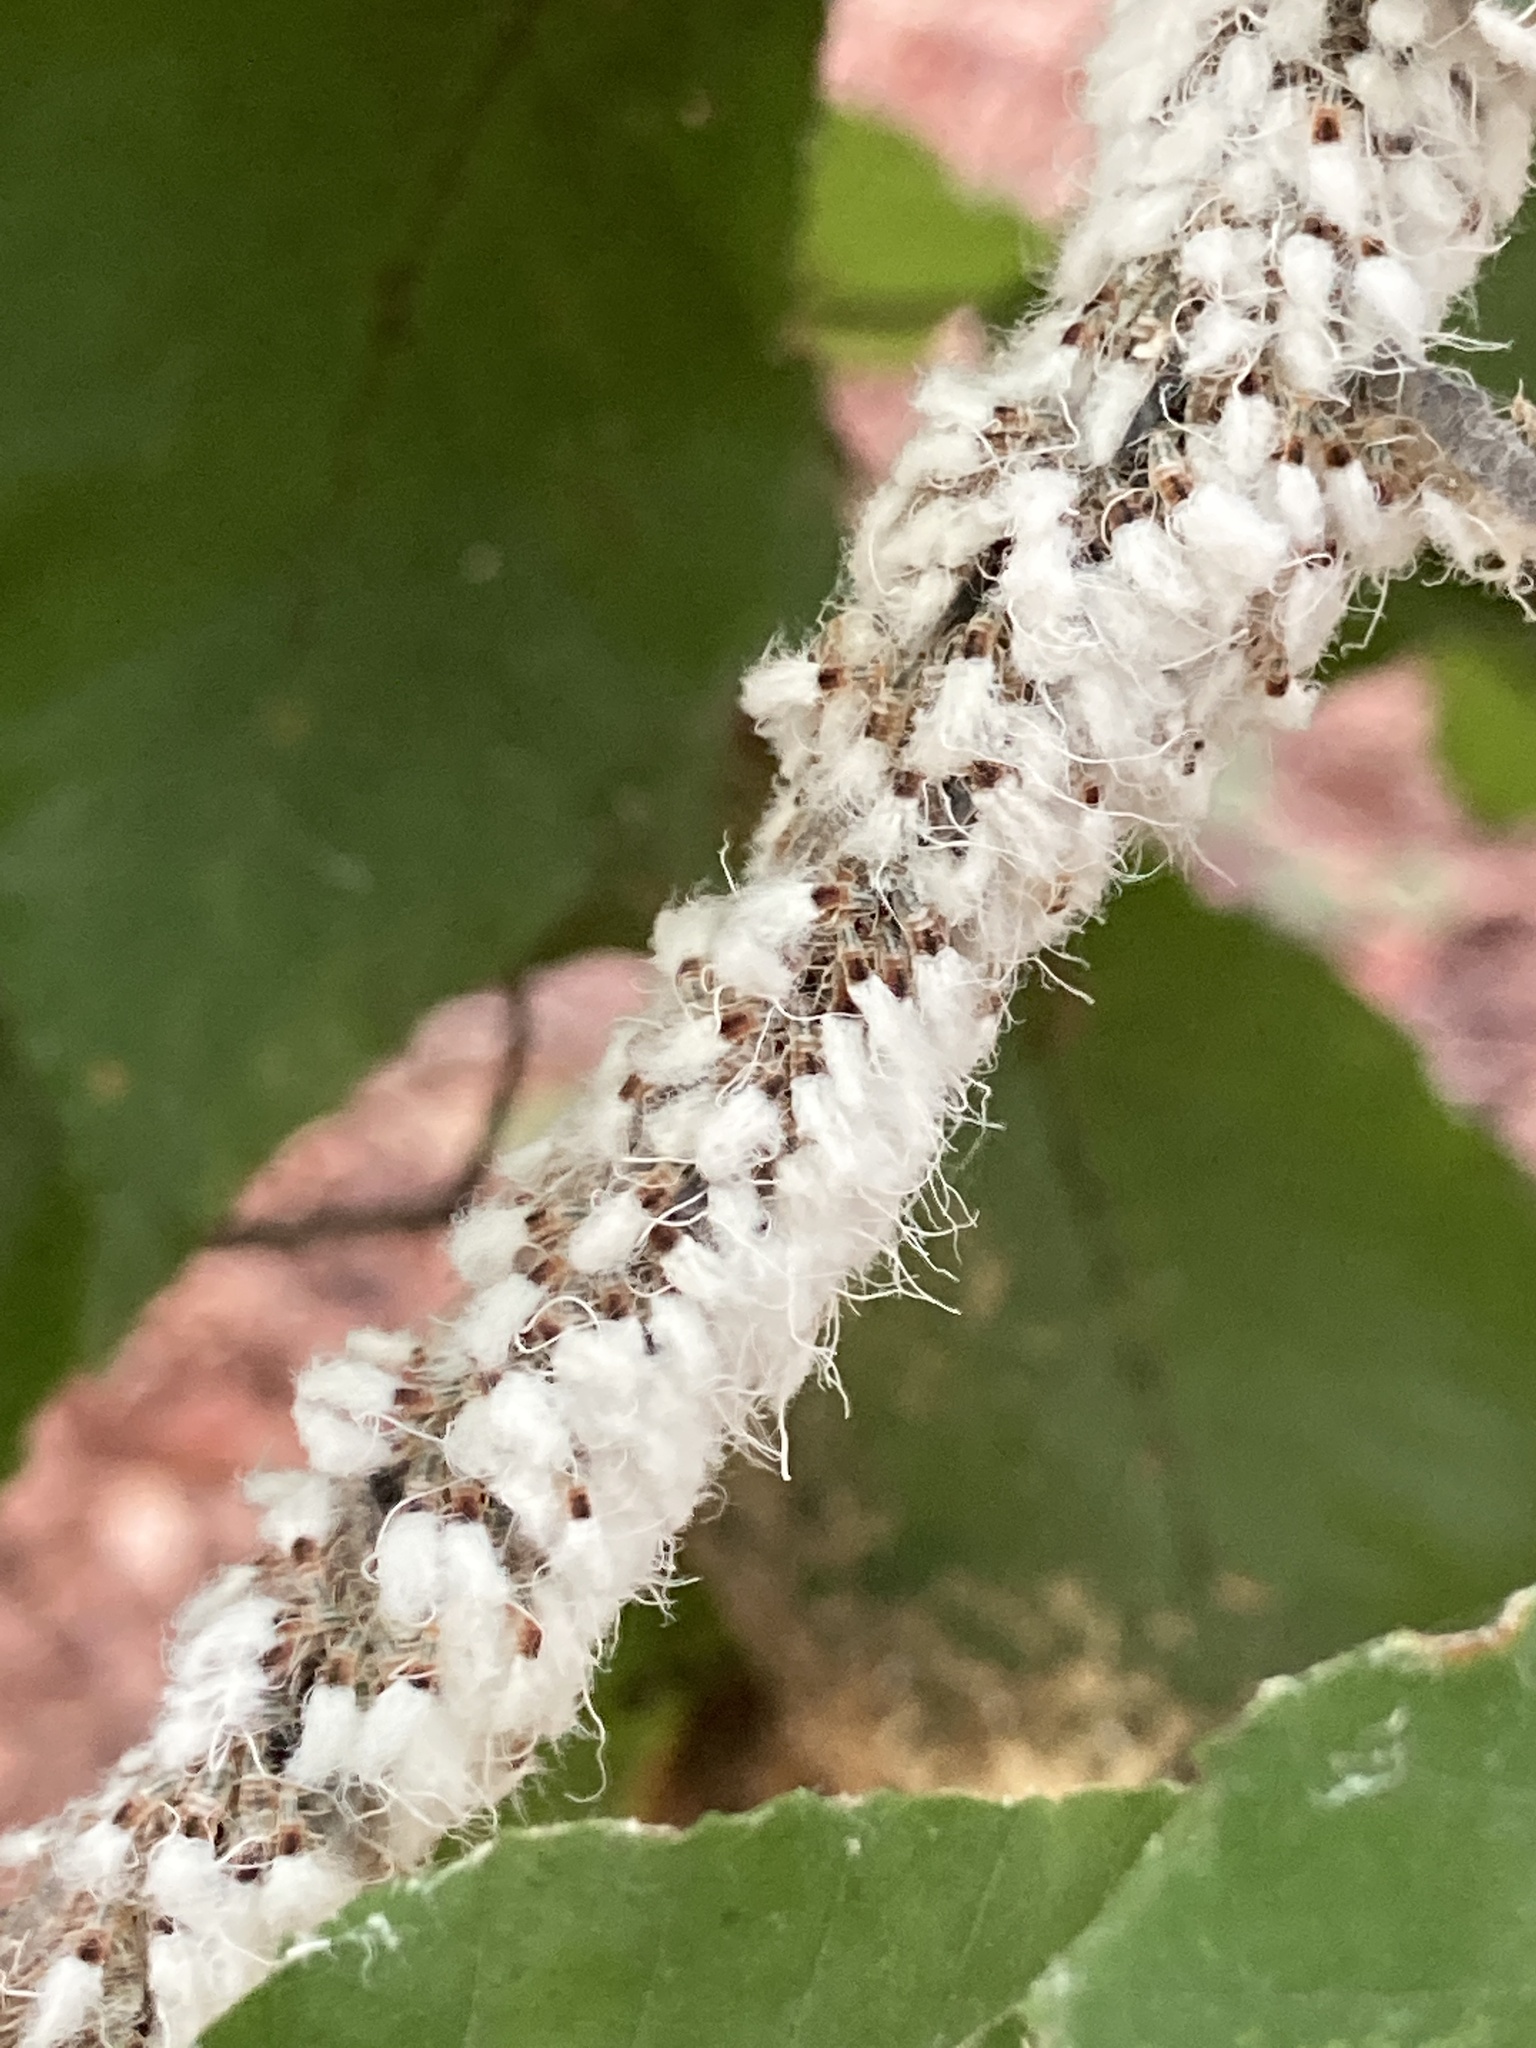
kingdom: Animalia
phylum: Arthropoda
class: Insecta
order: Hemiptera
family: Aphididae
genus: Grylloprociphilus
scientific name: Grylloprociphilus imbricator
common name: Beech blight aphid
